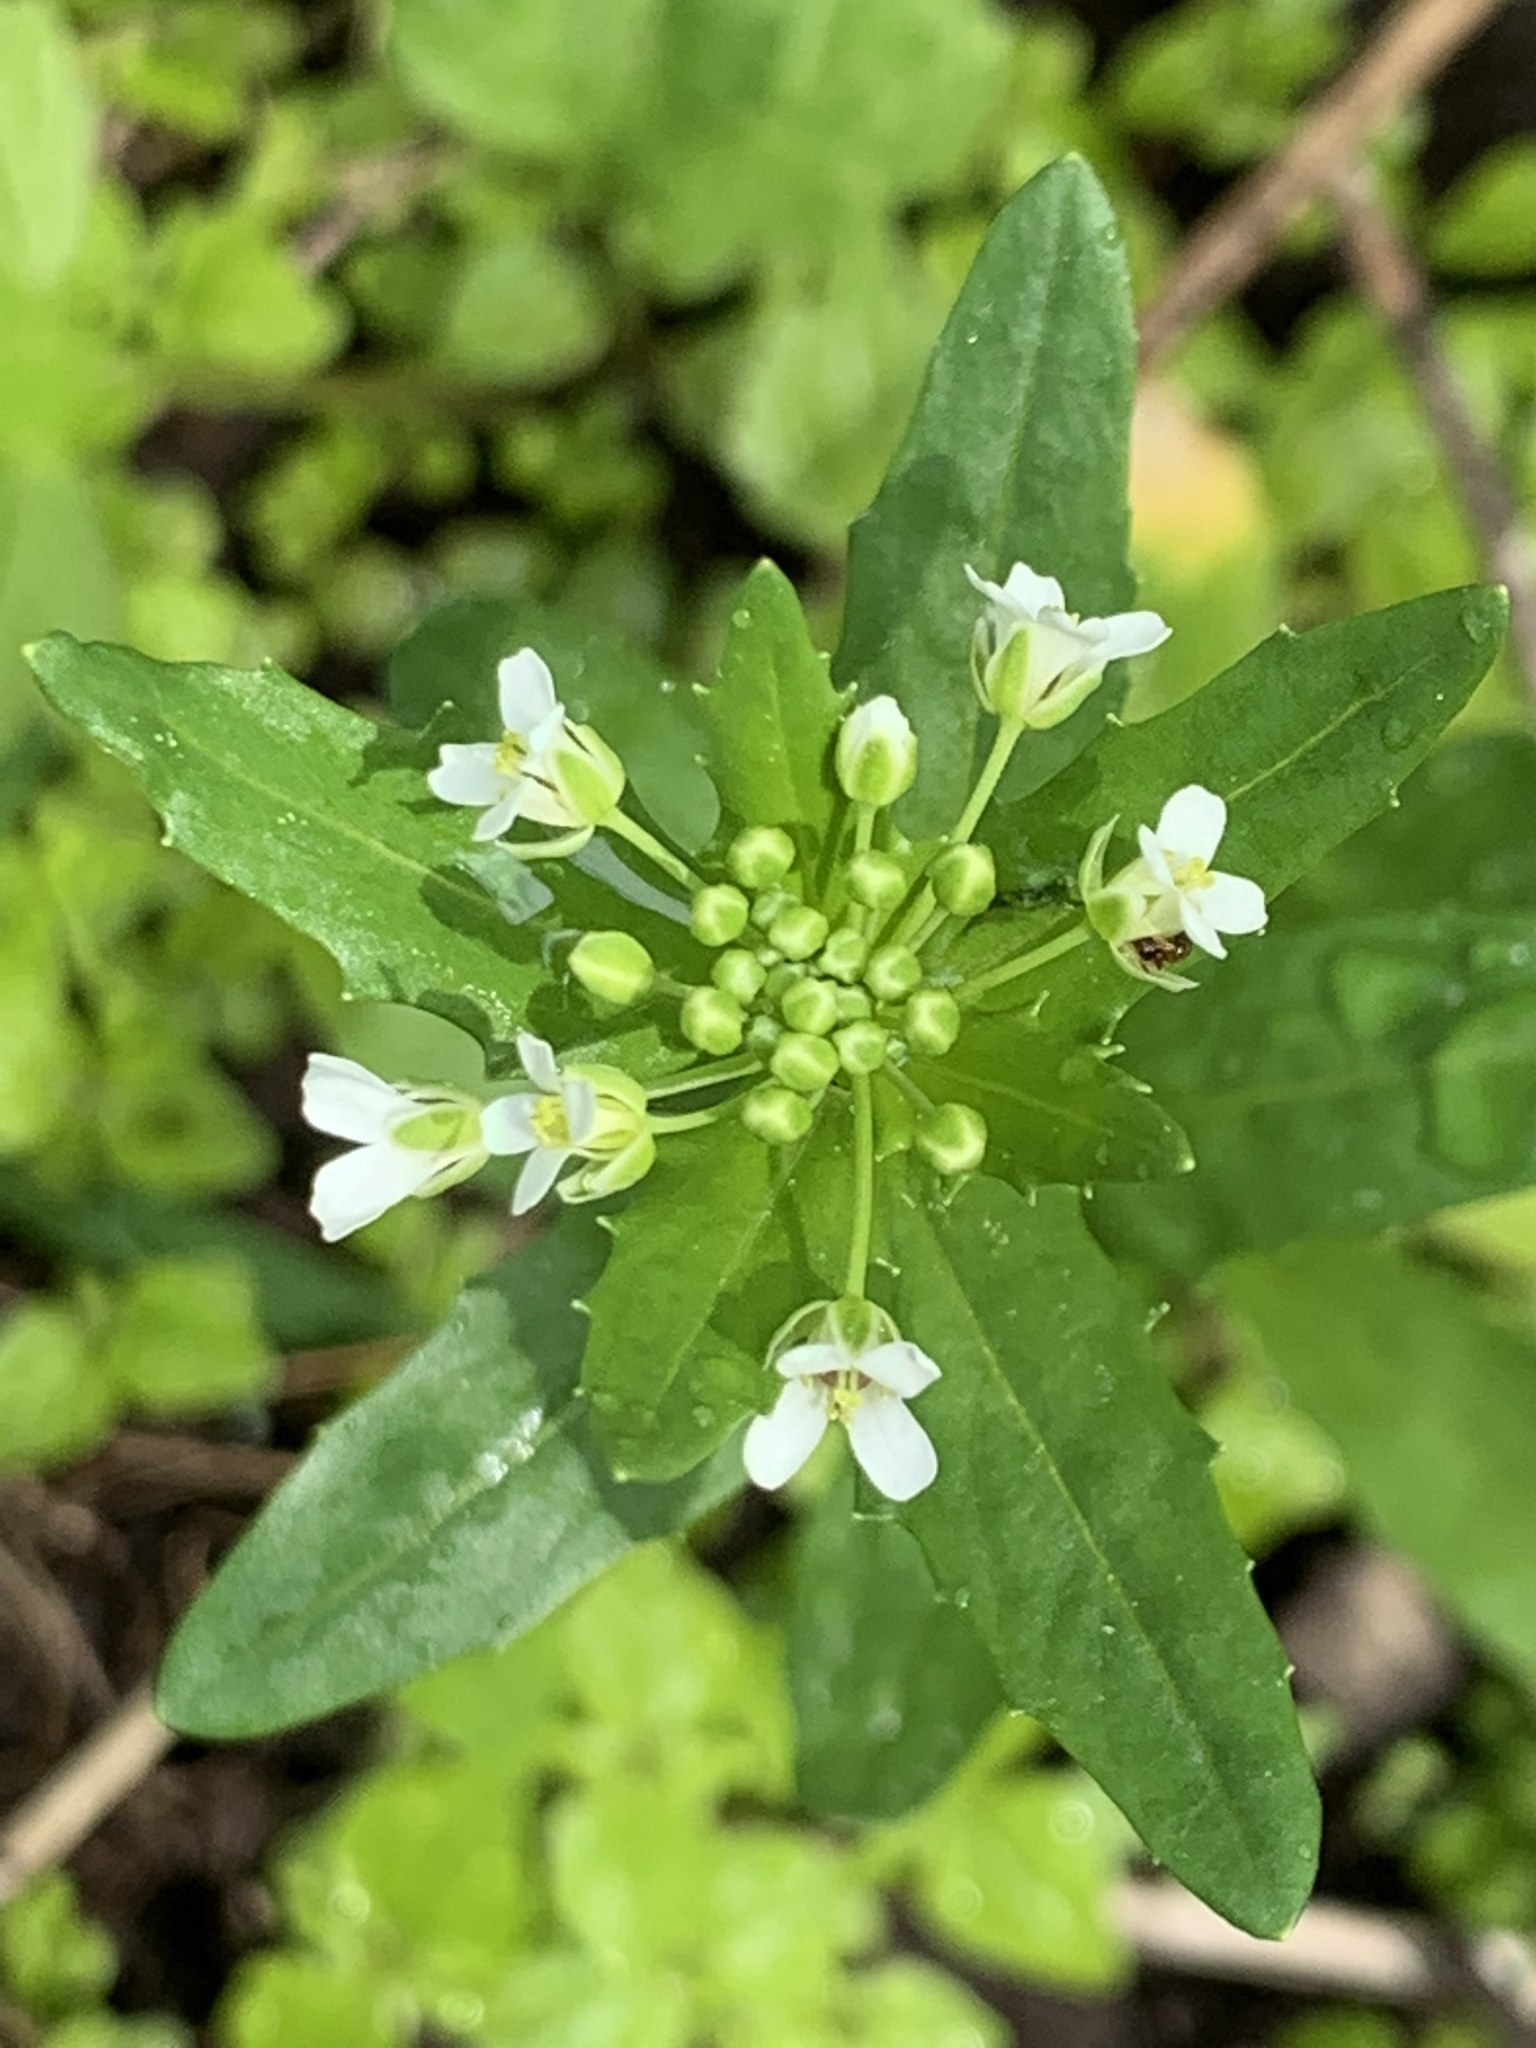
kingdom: Plantae
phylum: Tracheophyta
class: Magnoliopsida
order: Brassicales
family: Brassicaceae
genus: Thlaspi
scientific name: Thlaspi arvense
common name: Field pennycress
